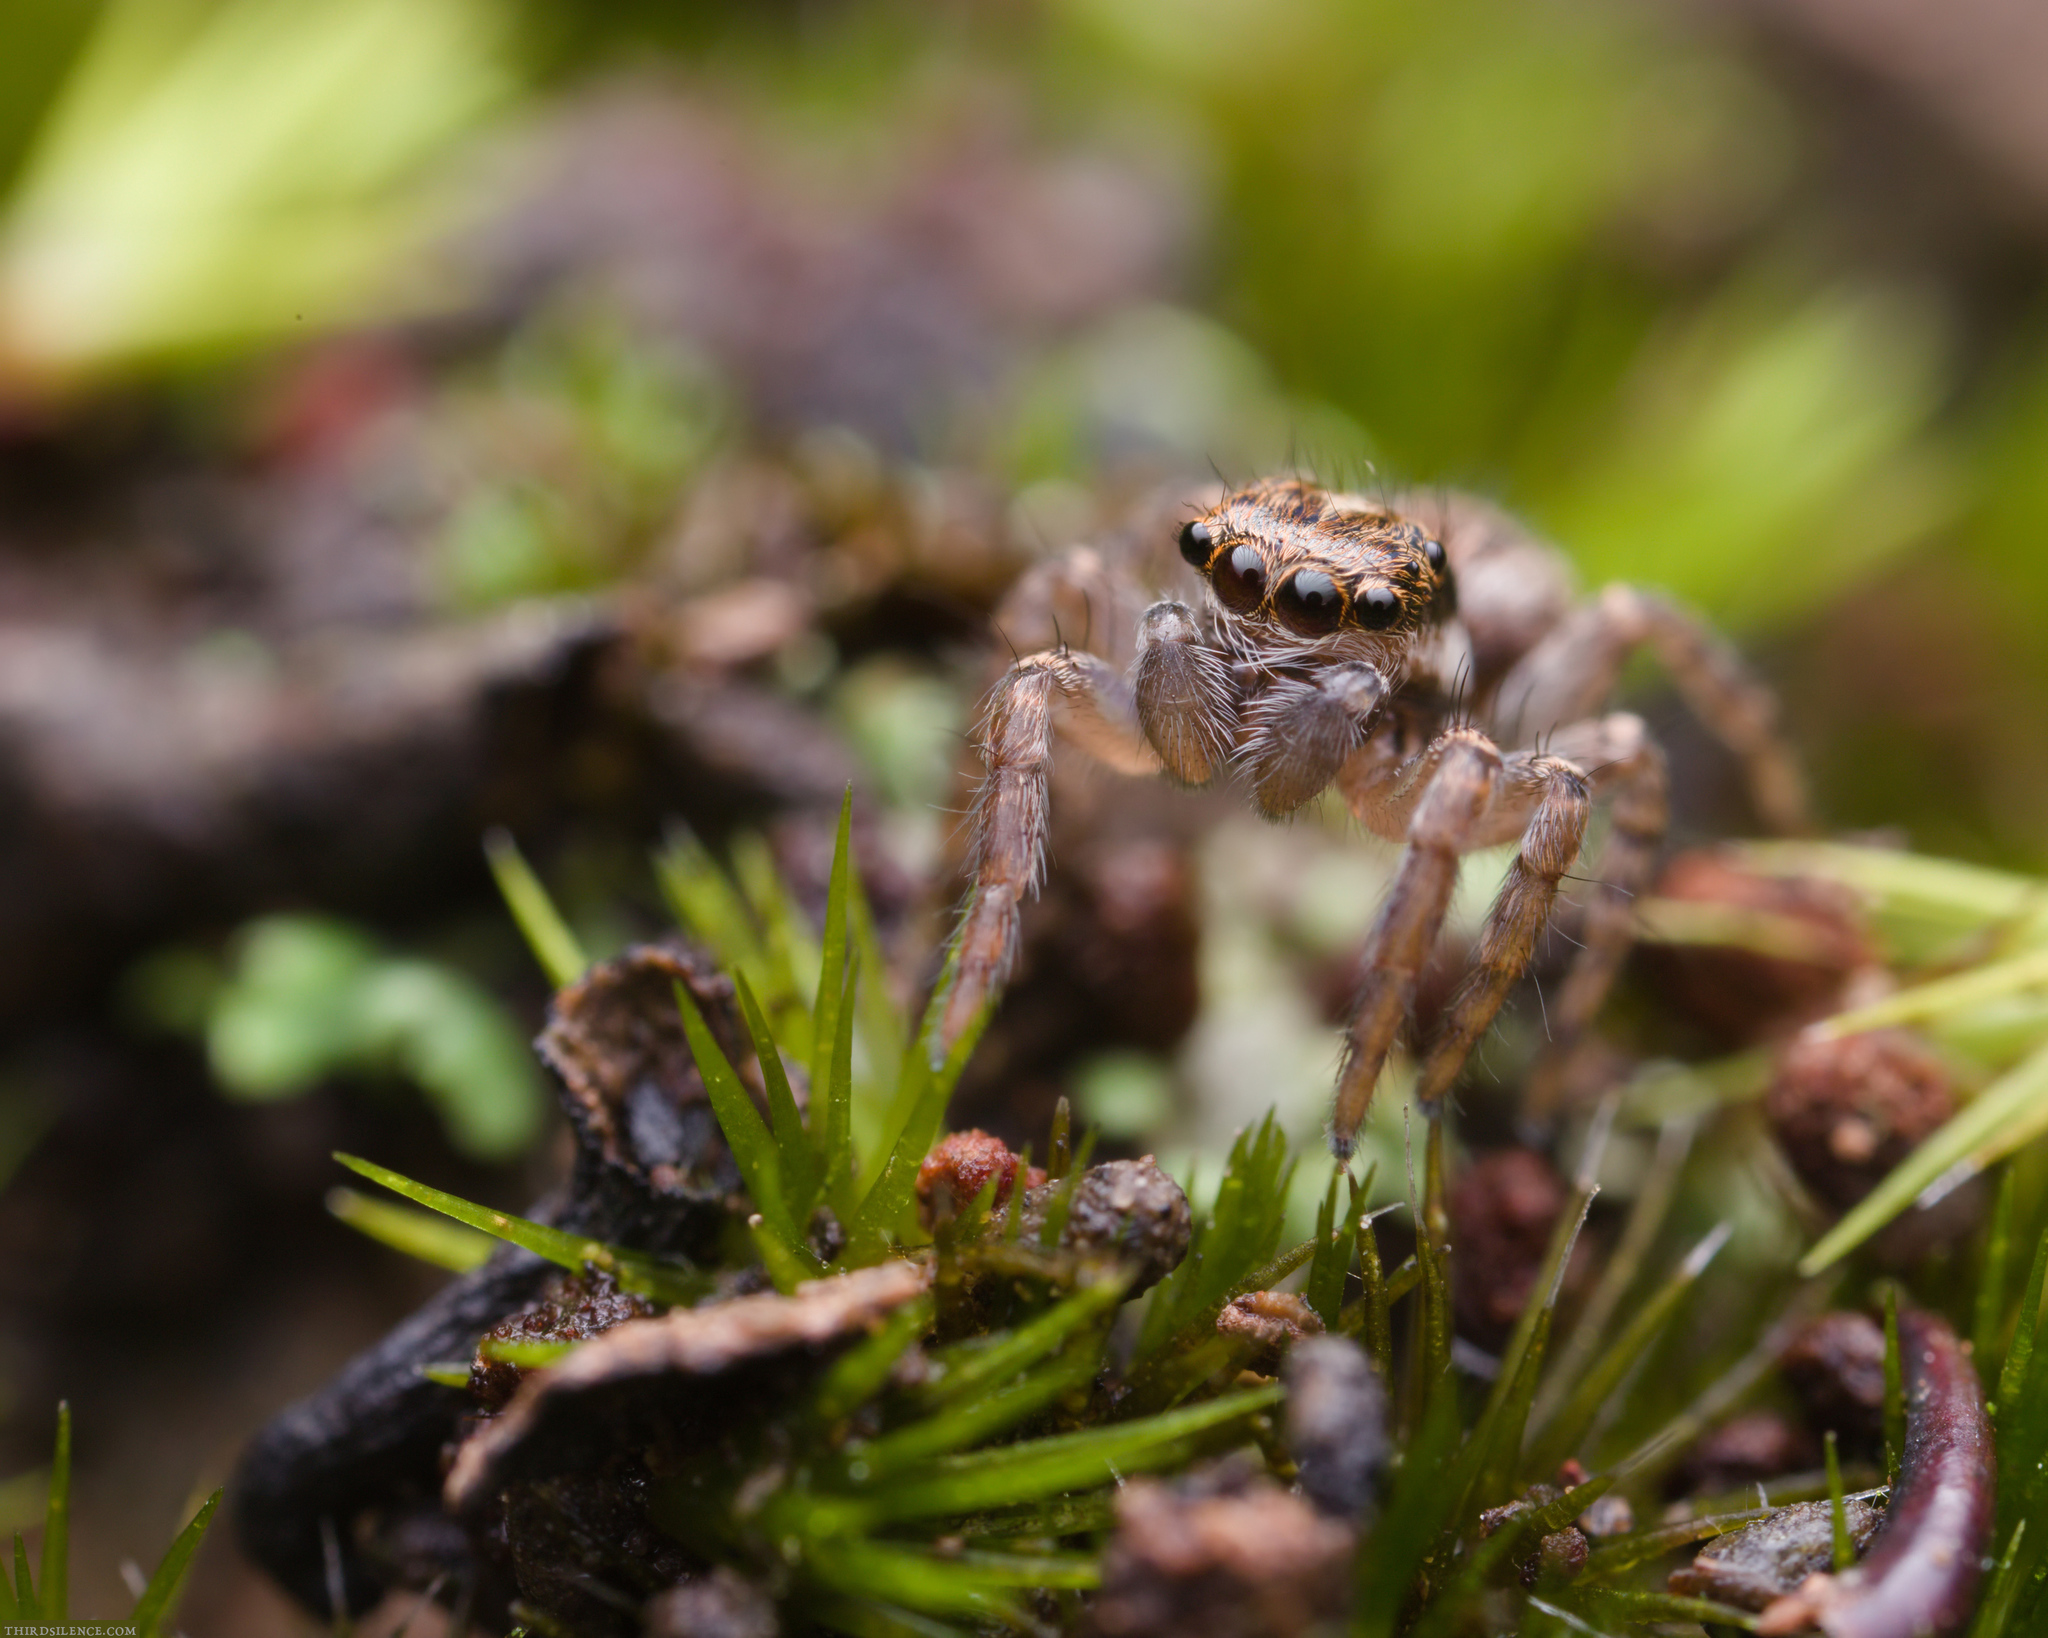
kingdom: Animalia
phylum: Arthropoda
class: Arachnida
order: Araneae
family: Salticidae
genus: Maratus
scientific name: Maratus griseus
